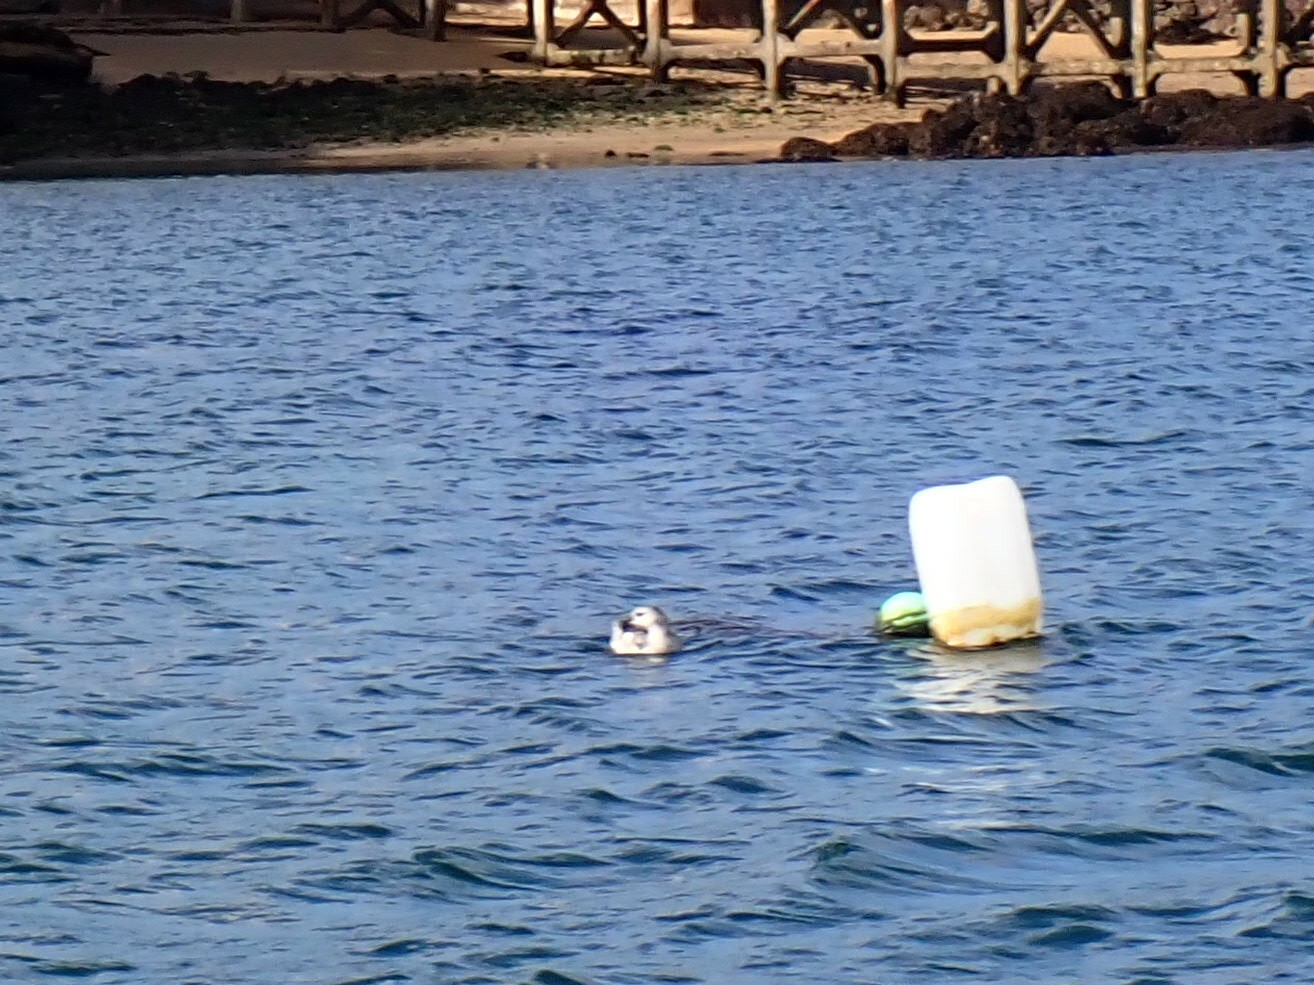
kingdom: Animalia
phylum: Chordata
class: Aves
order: Charadriiformes
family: Alcidae
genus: Cepphus
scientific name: Cepphus grylle
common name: Black guillemot
